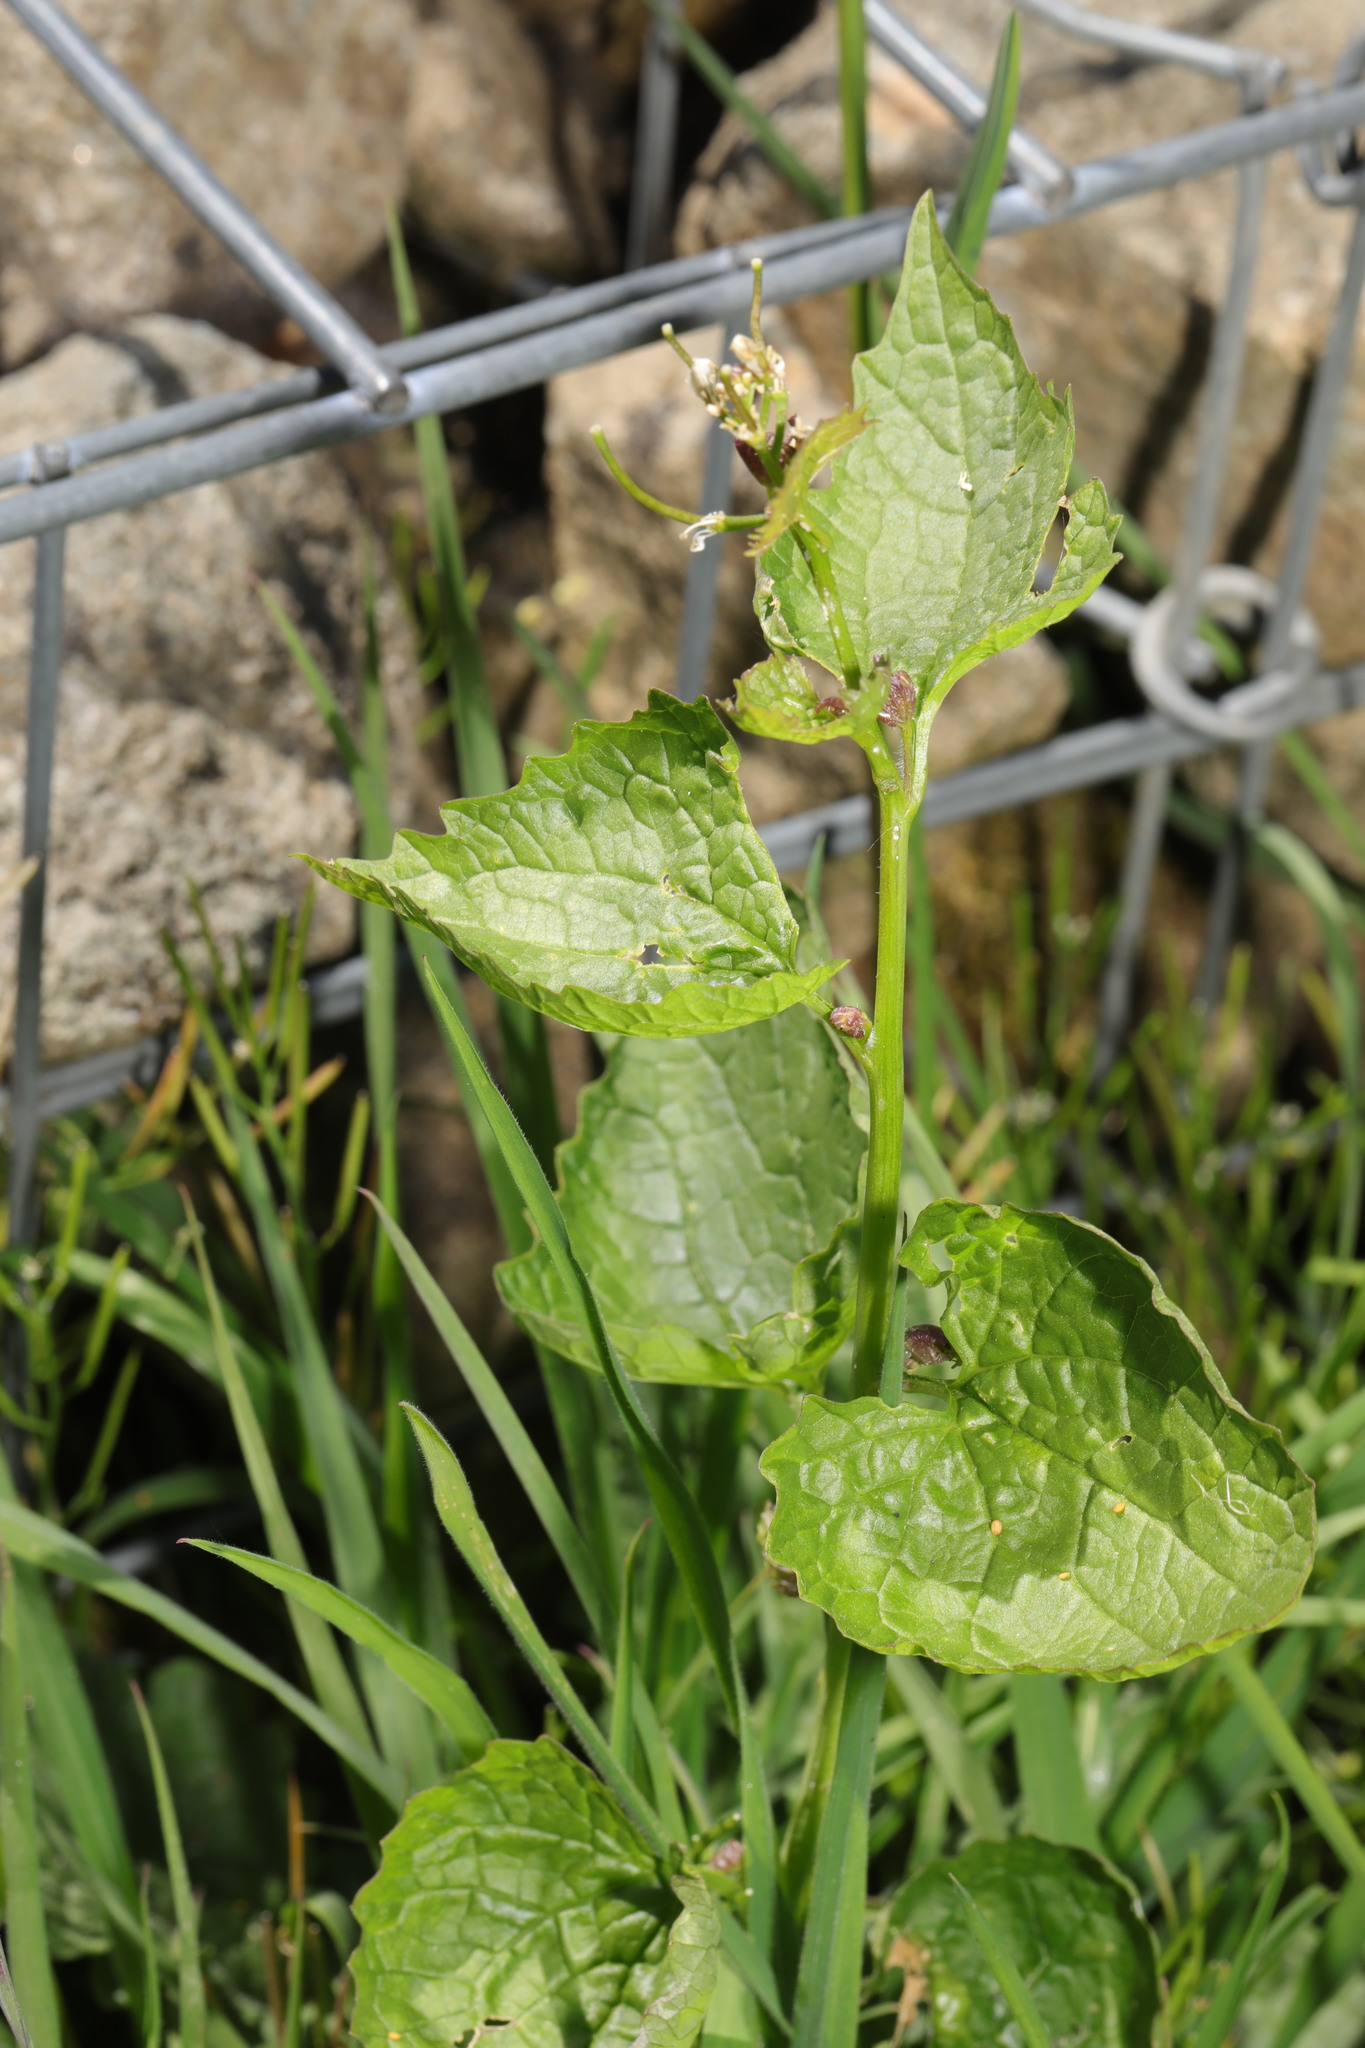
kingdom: Plantae
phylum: Tracheophyta
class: Magnoliopsida
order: Brassicales
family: Brassicaceae
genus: Alliaria
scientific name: Alliaria petiolata
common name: Garlic mustard
